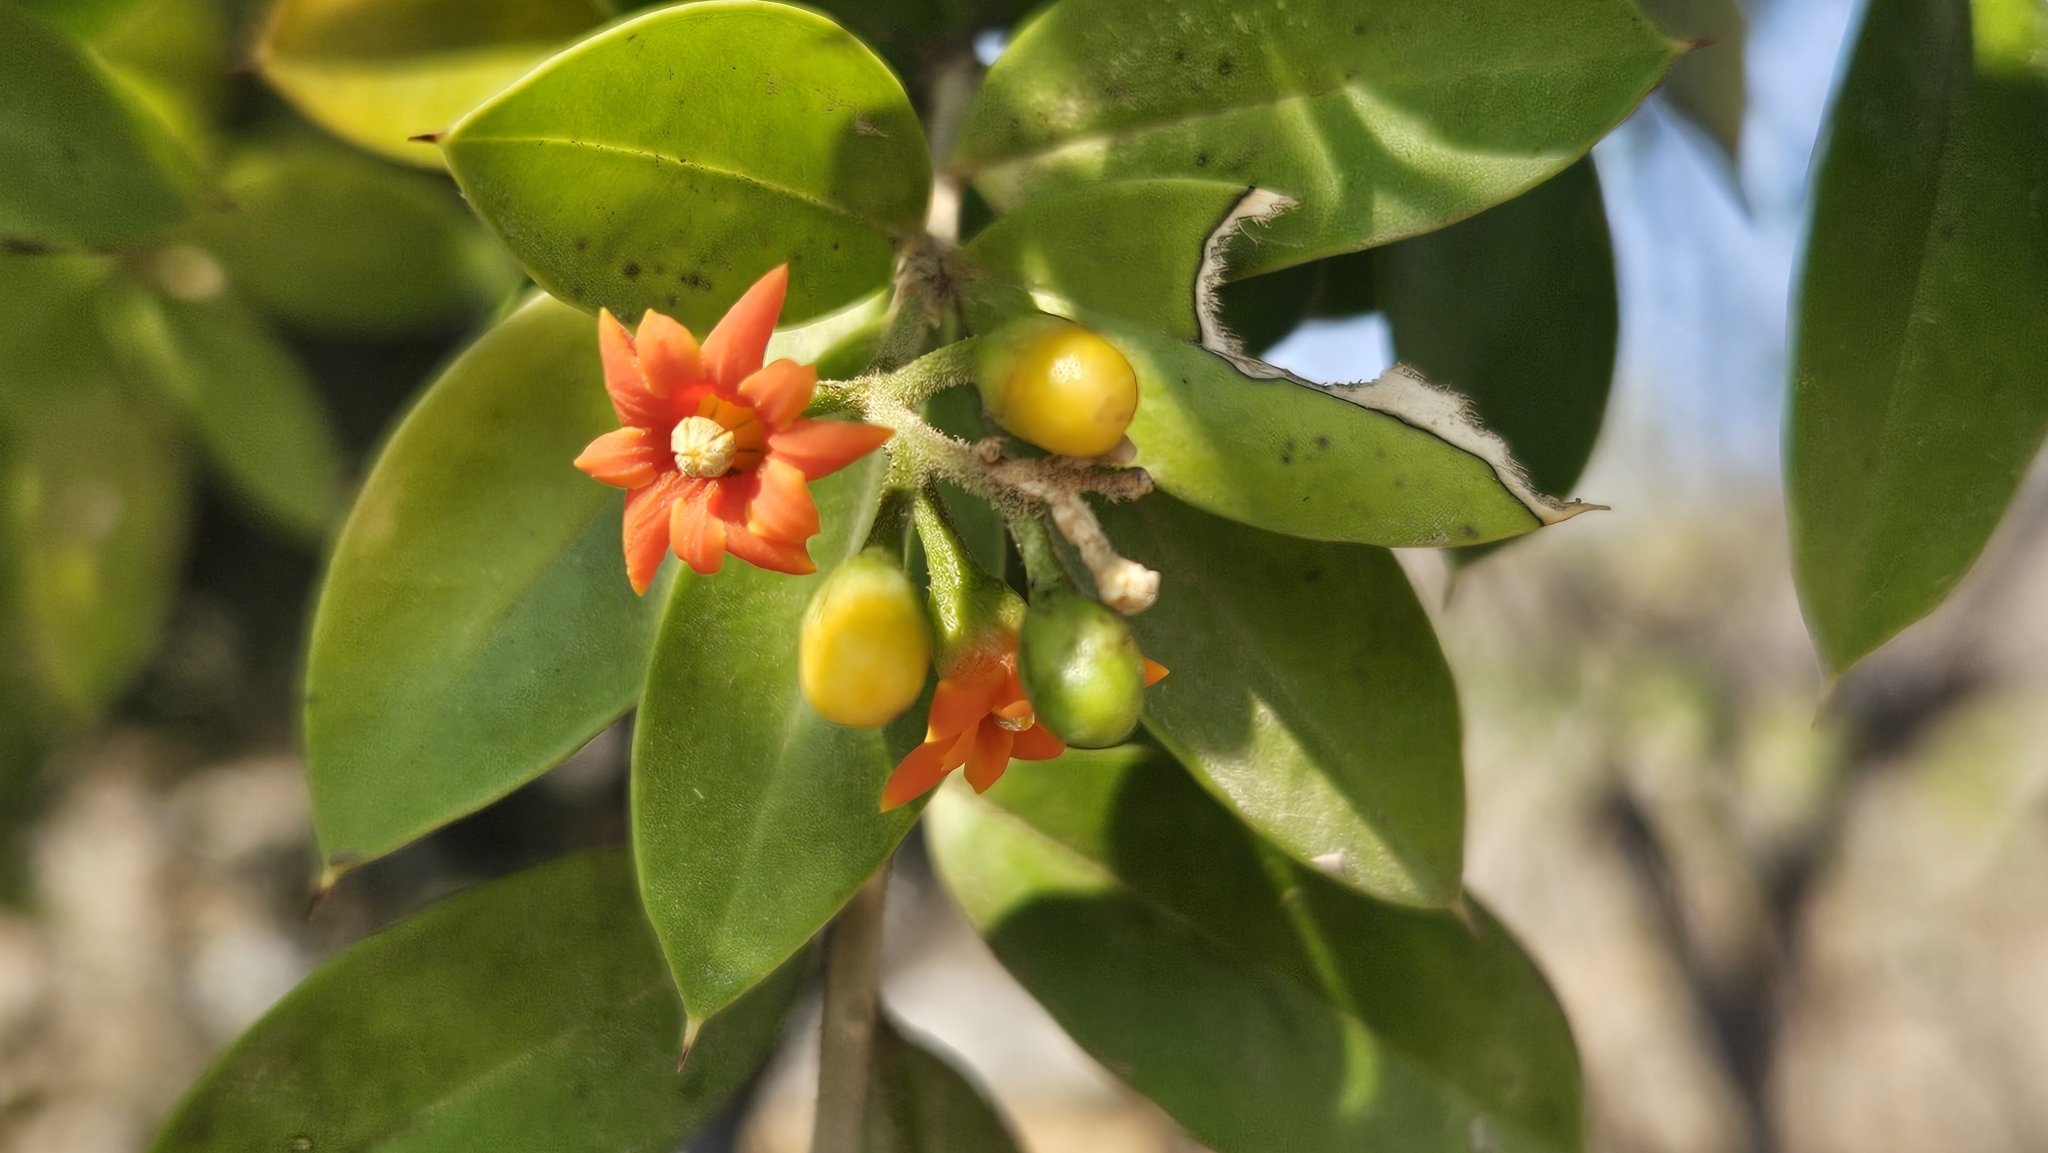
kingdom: Plantae
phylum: Tracheophyta
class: Magnoliopsida
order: Ericales
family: Primulaceae
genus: Bonellia
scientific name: Bonellia macrocarpa
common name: Primrose
